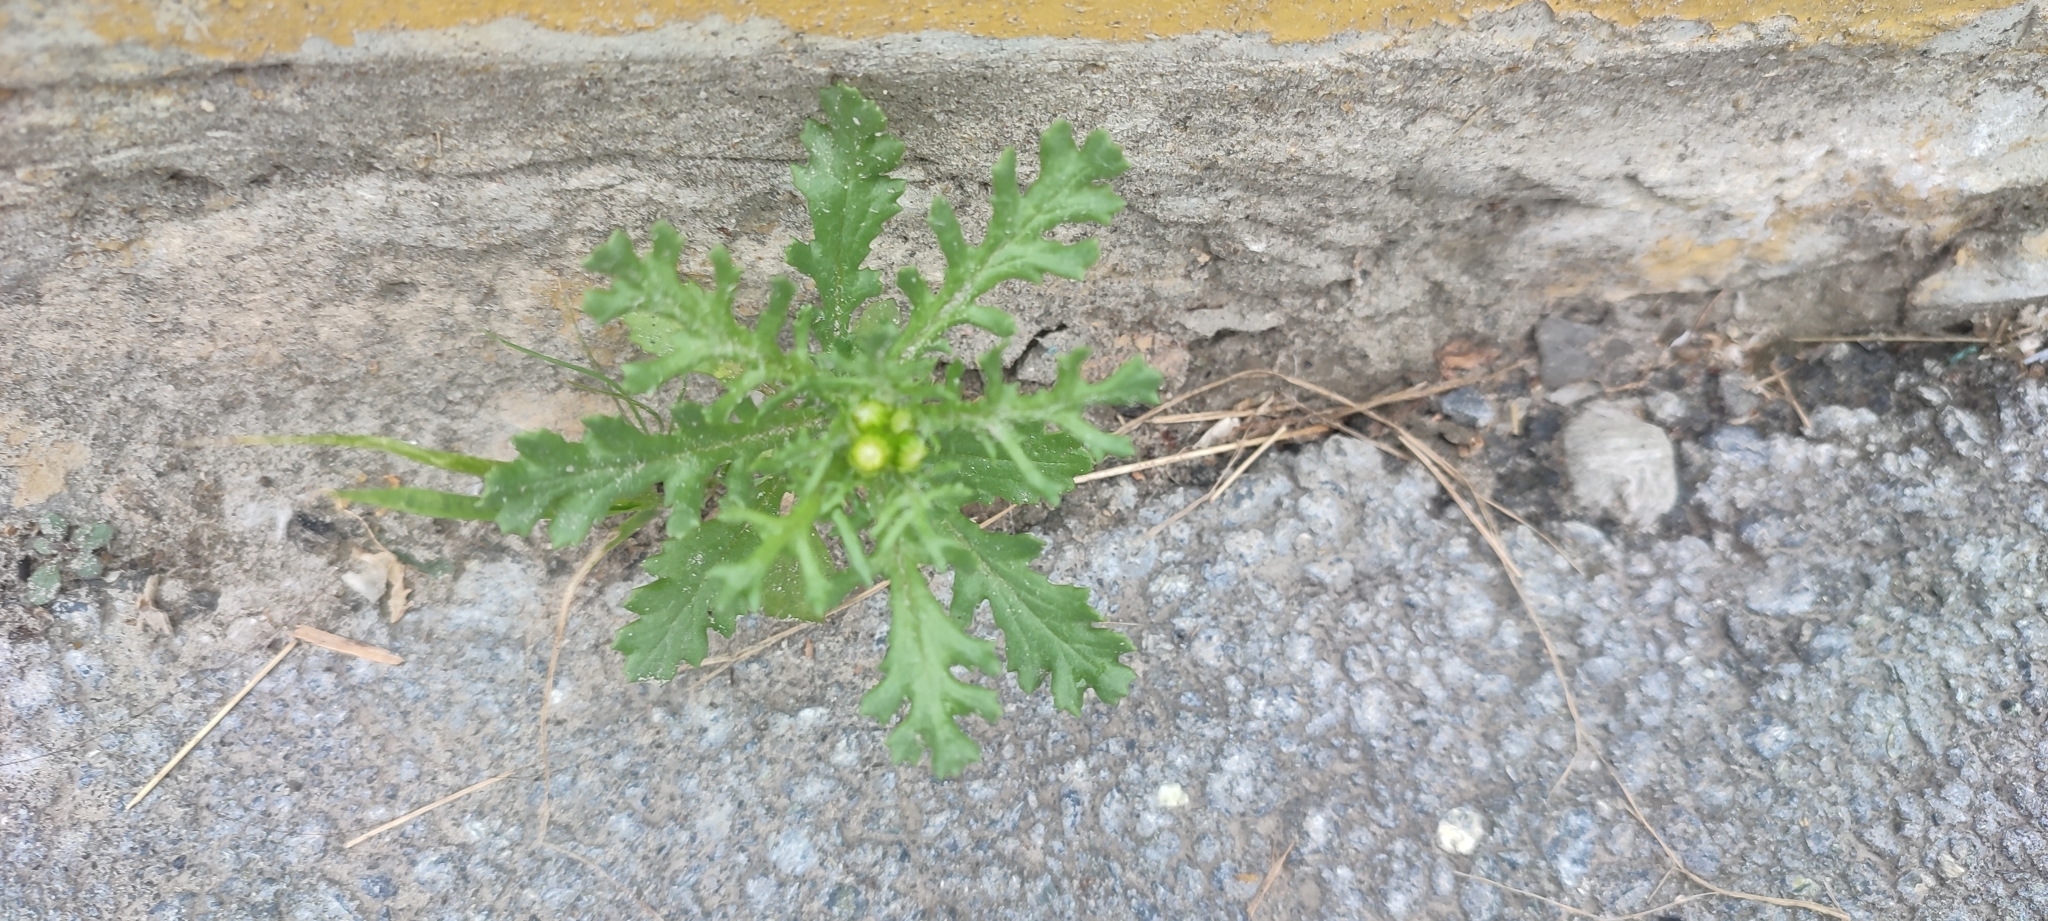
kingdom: Plantae
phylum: Tracheophyta
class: Magnoliopsida
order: Asterales
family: Asteraceae
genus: Senecio
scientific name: Senecio vulgaris
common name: Old-man-in-the-spring
